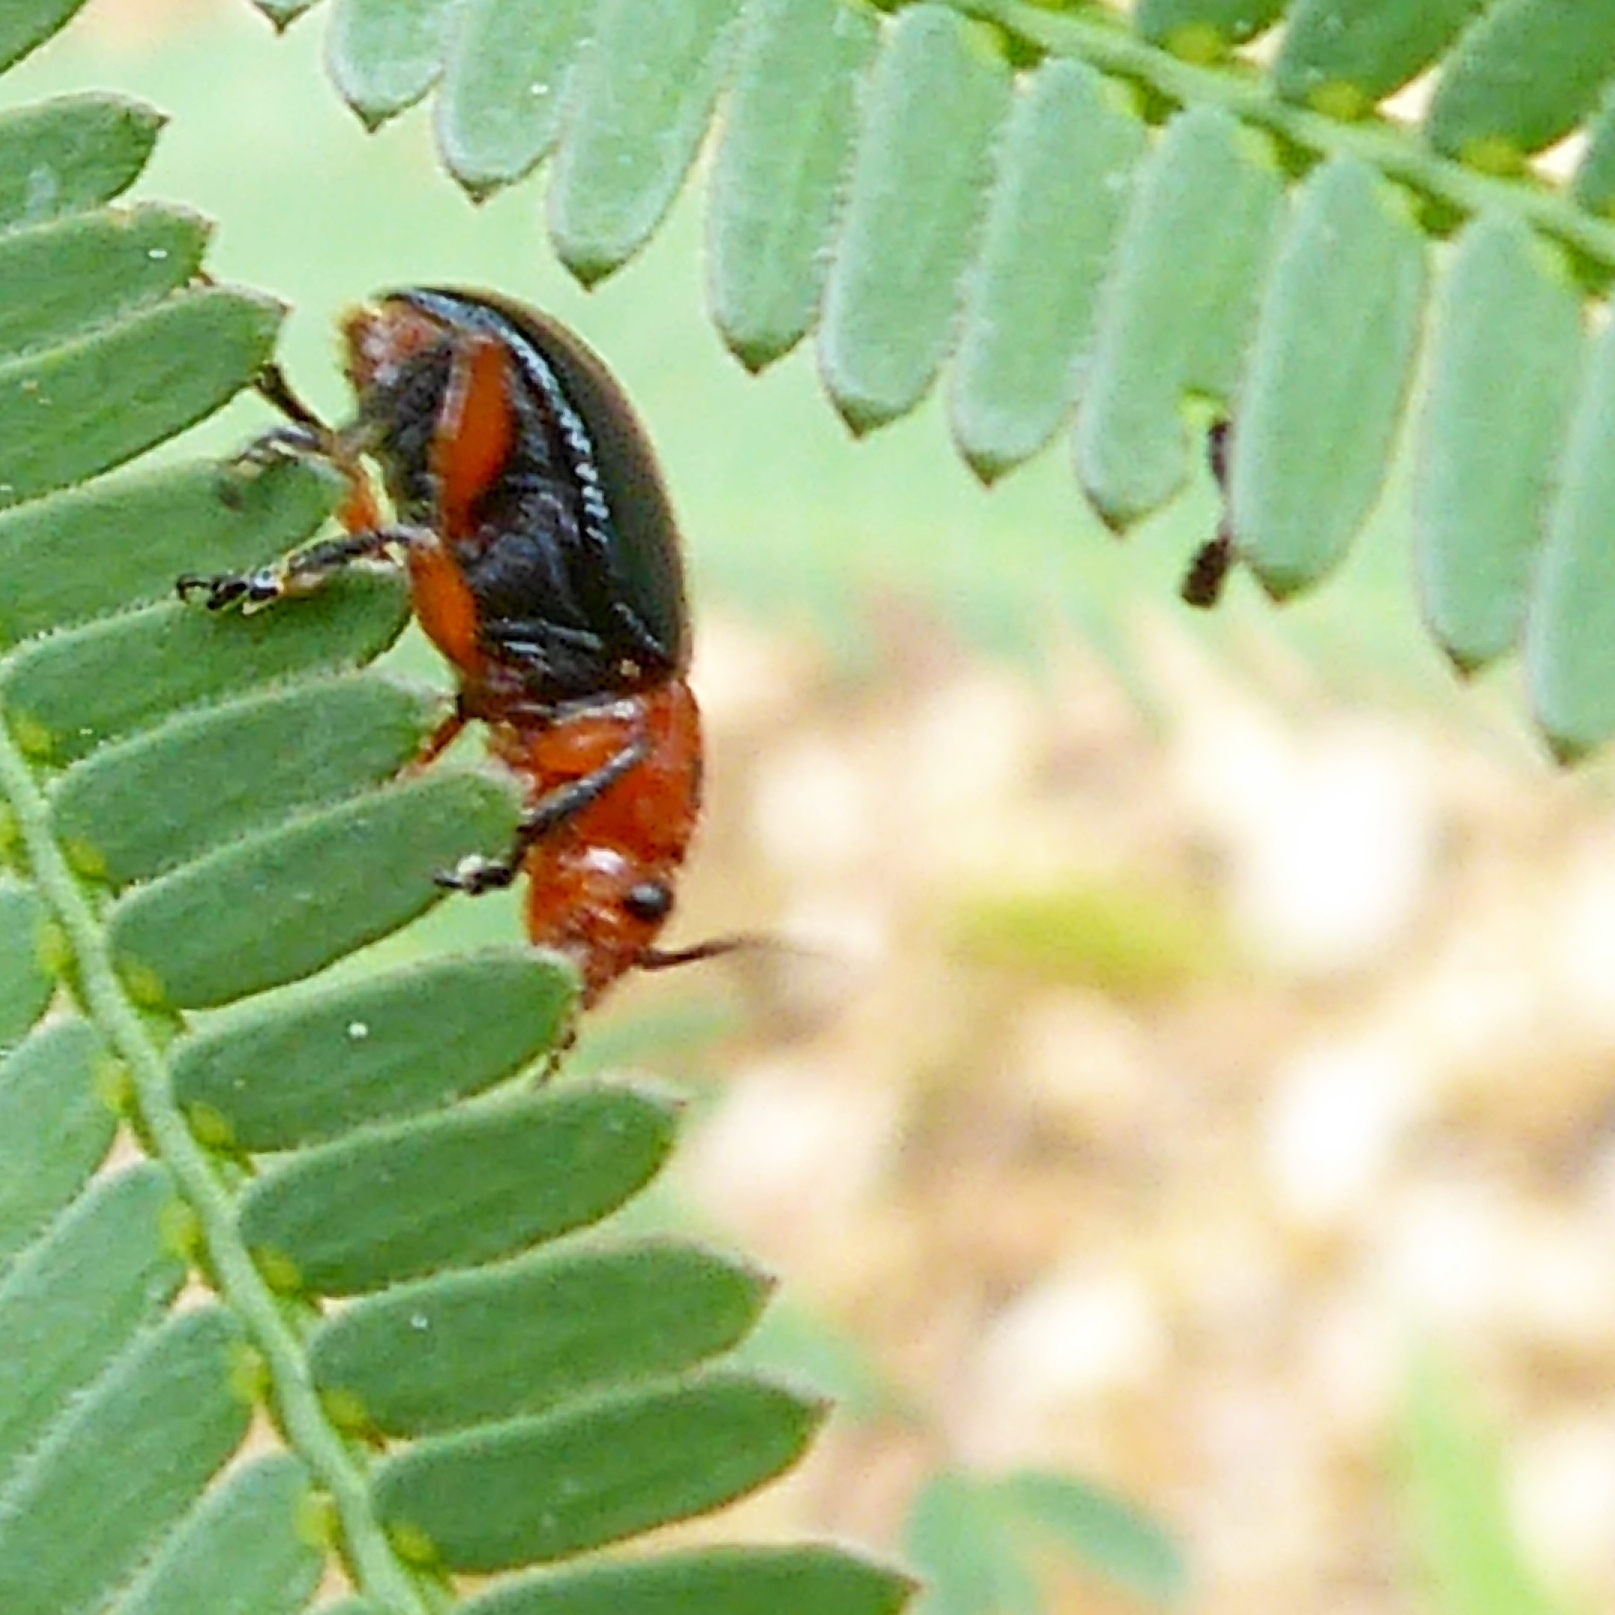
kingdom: Animalia
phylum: Arthropoda
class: Insecta
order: Coleoptera
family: Chrysomelidae
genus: Calomela
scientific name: Calomela
